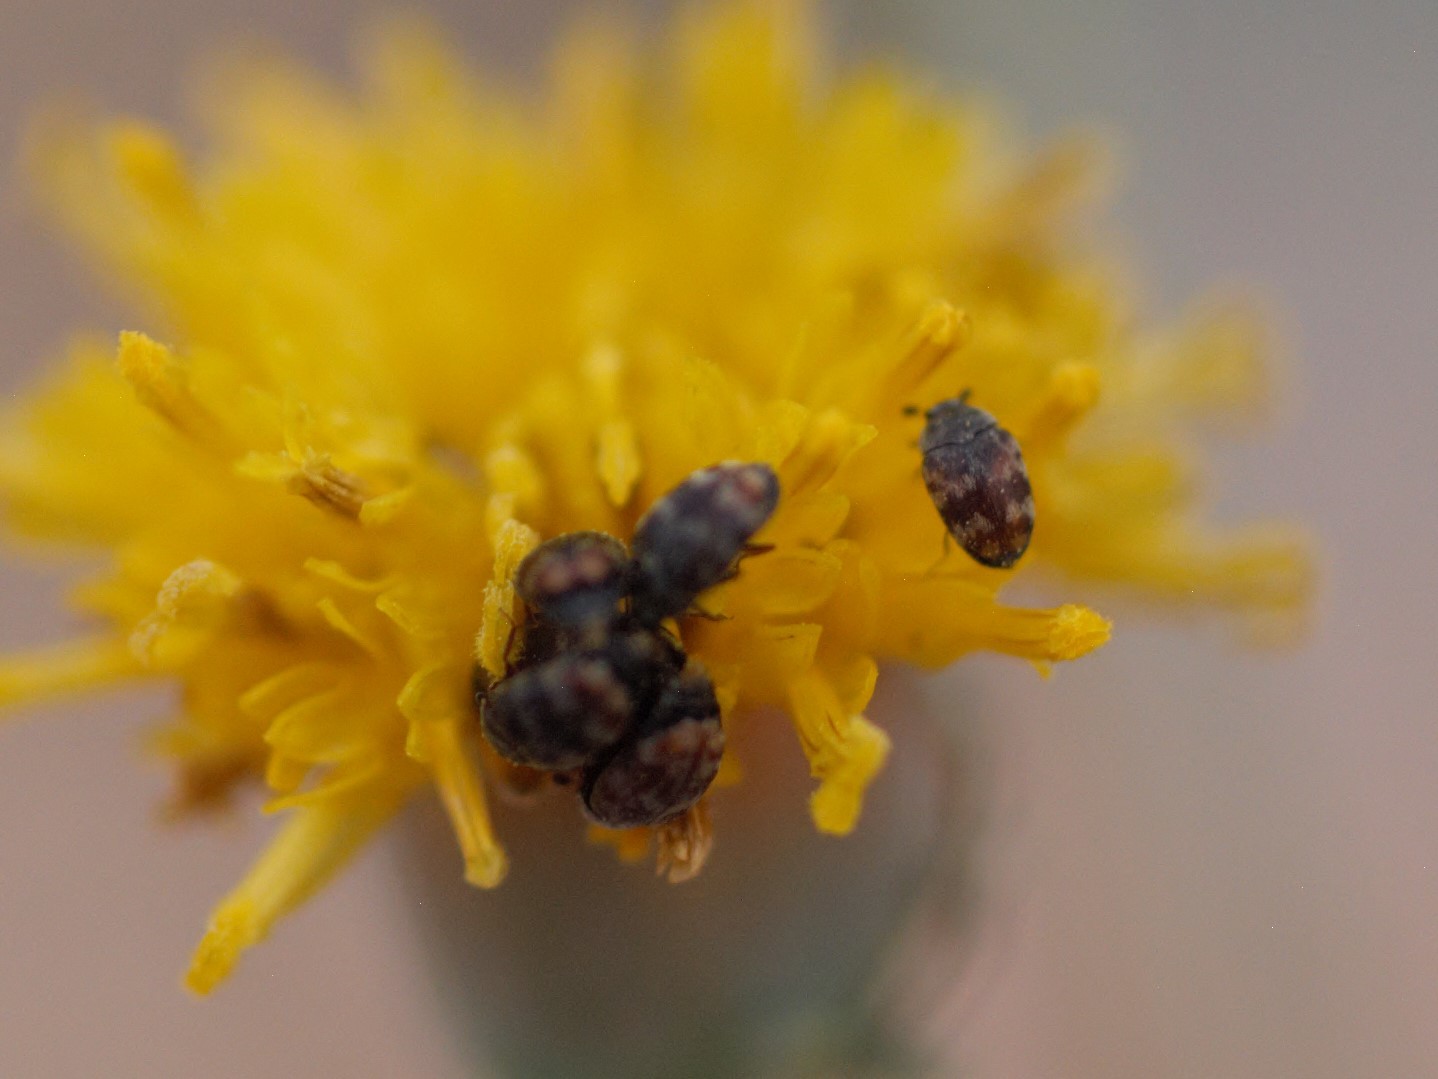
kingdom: Animalia
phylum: Arthropoda
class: Insecta
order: Coleoptera
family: Dermestidae
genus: Cryptorhopalum
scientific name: Cryptorhopalum
